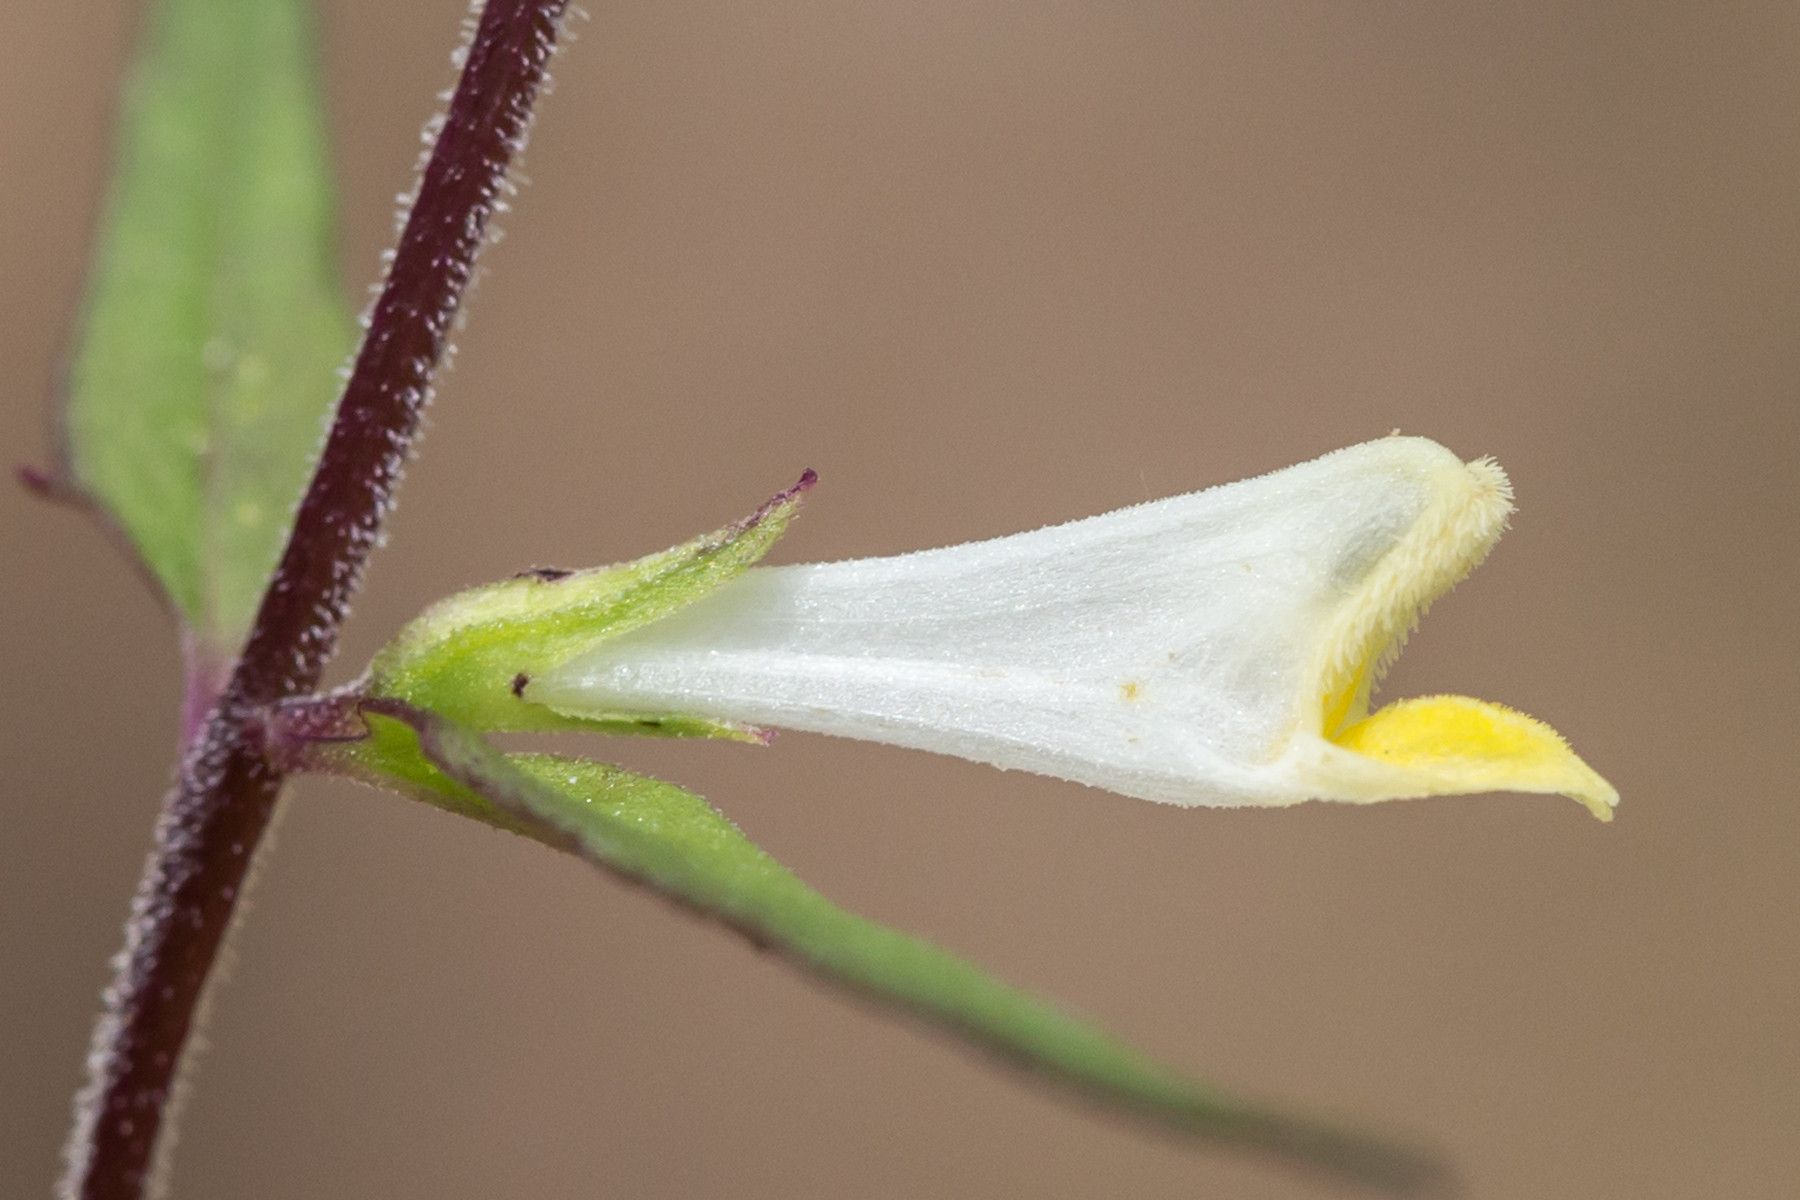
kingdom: Plantae
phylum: Tracheophyta
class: Magnoliopsida
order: Lamiales
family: Orobanchaceae
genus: Melampyrum
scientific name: Melampyrum lineare
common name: American cow-wheat
